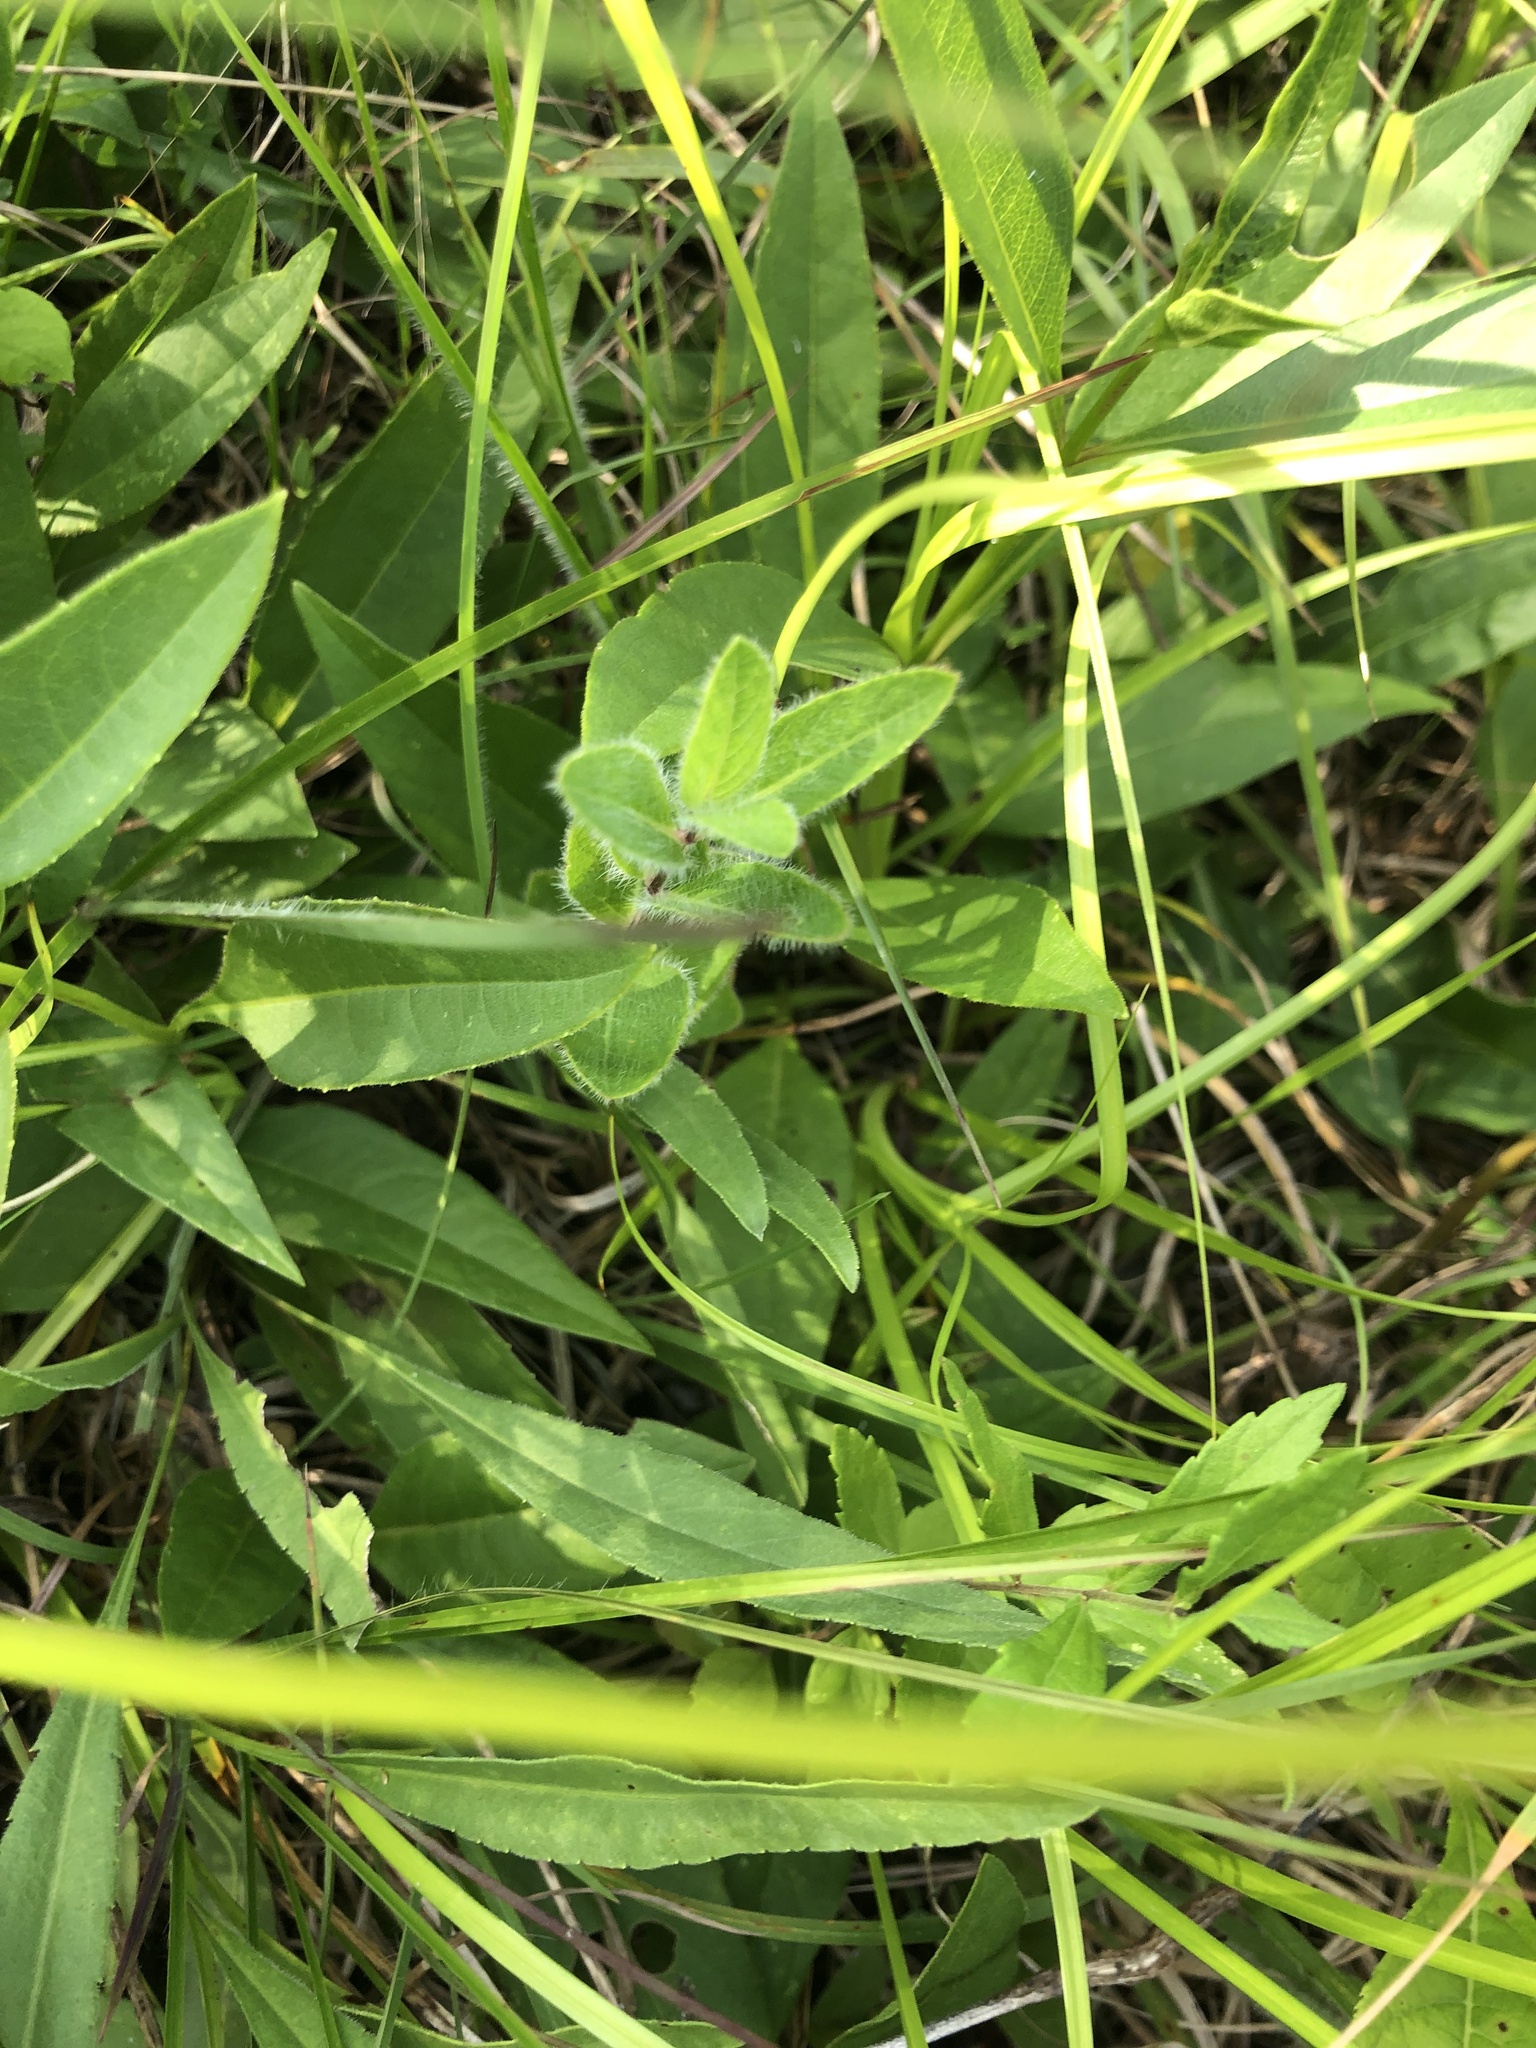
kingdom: Plantae
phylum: Tracheophyta
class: Magnoliopsida
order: Lamiales
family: Acanthaceae
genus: Ruellia
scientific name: Ruellia humilis
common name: Fringe-leaf ruellia
